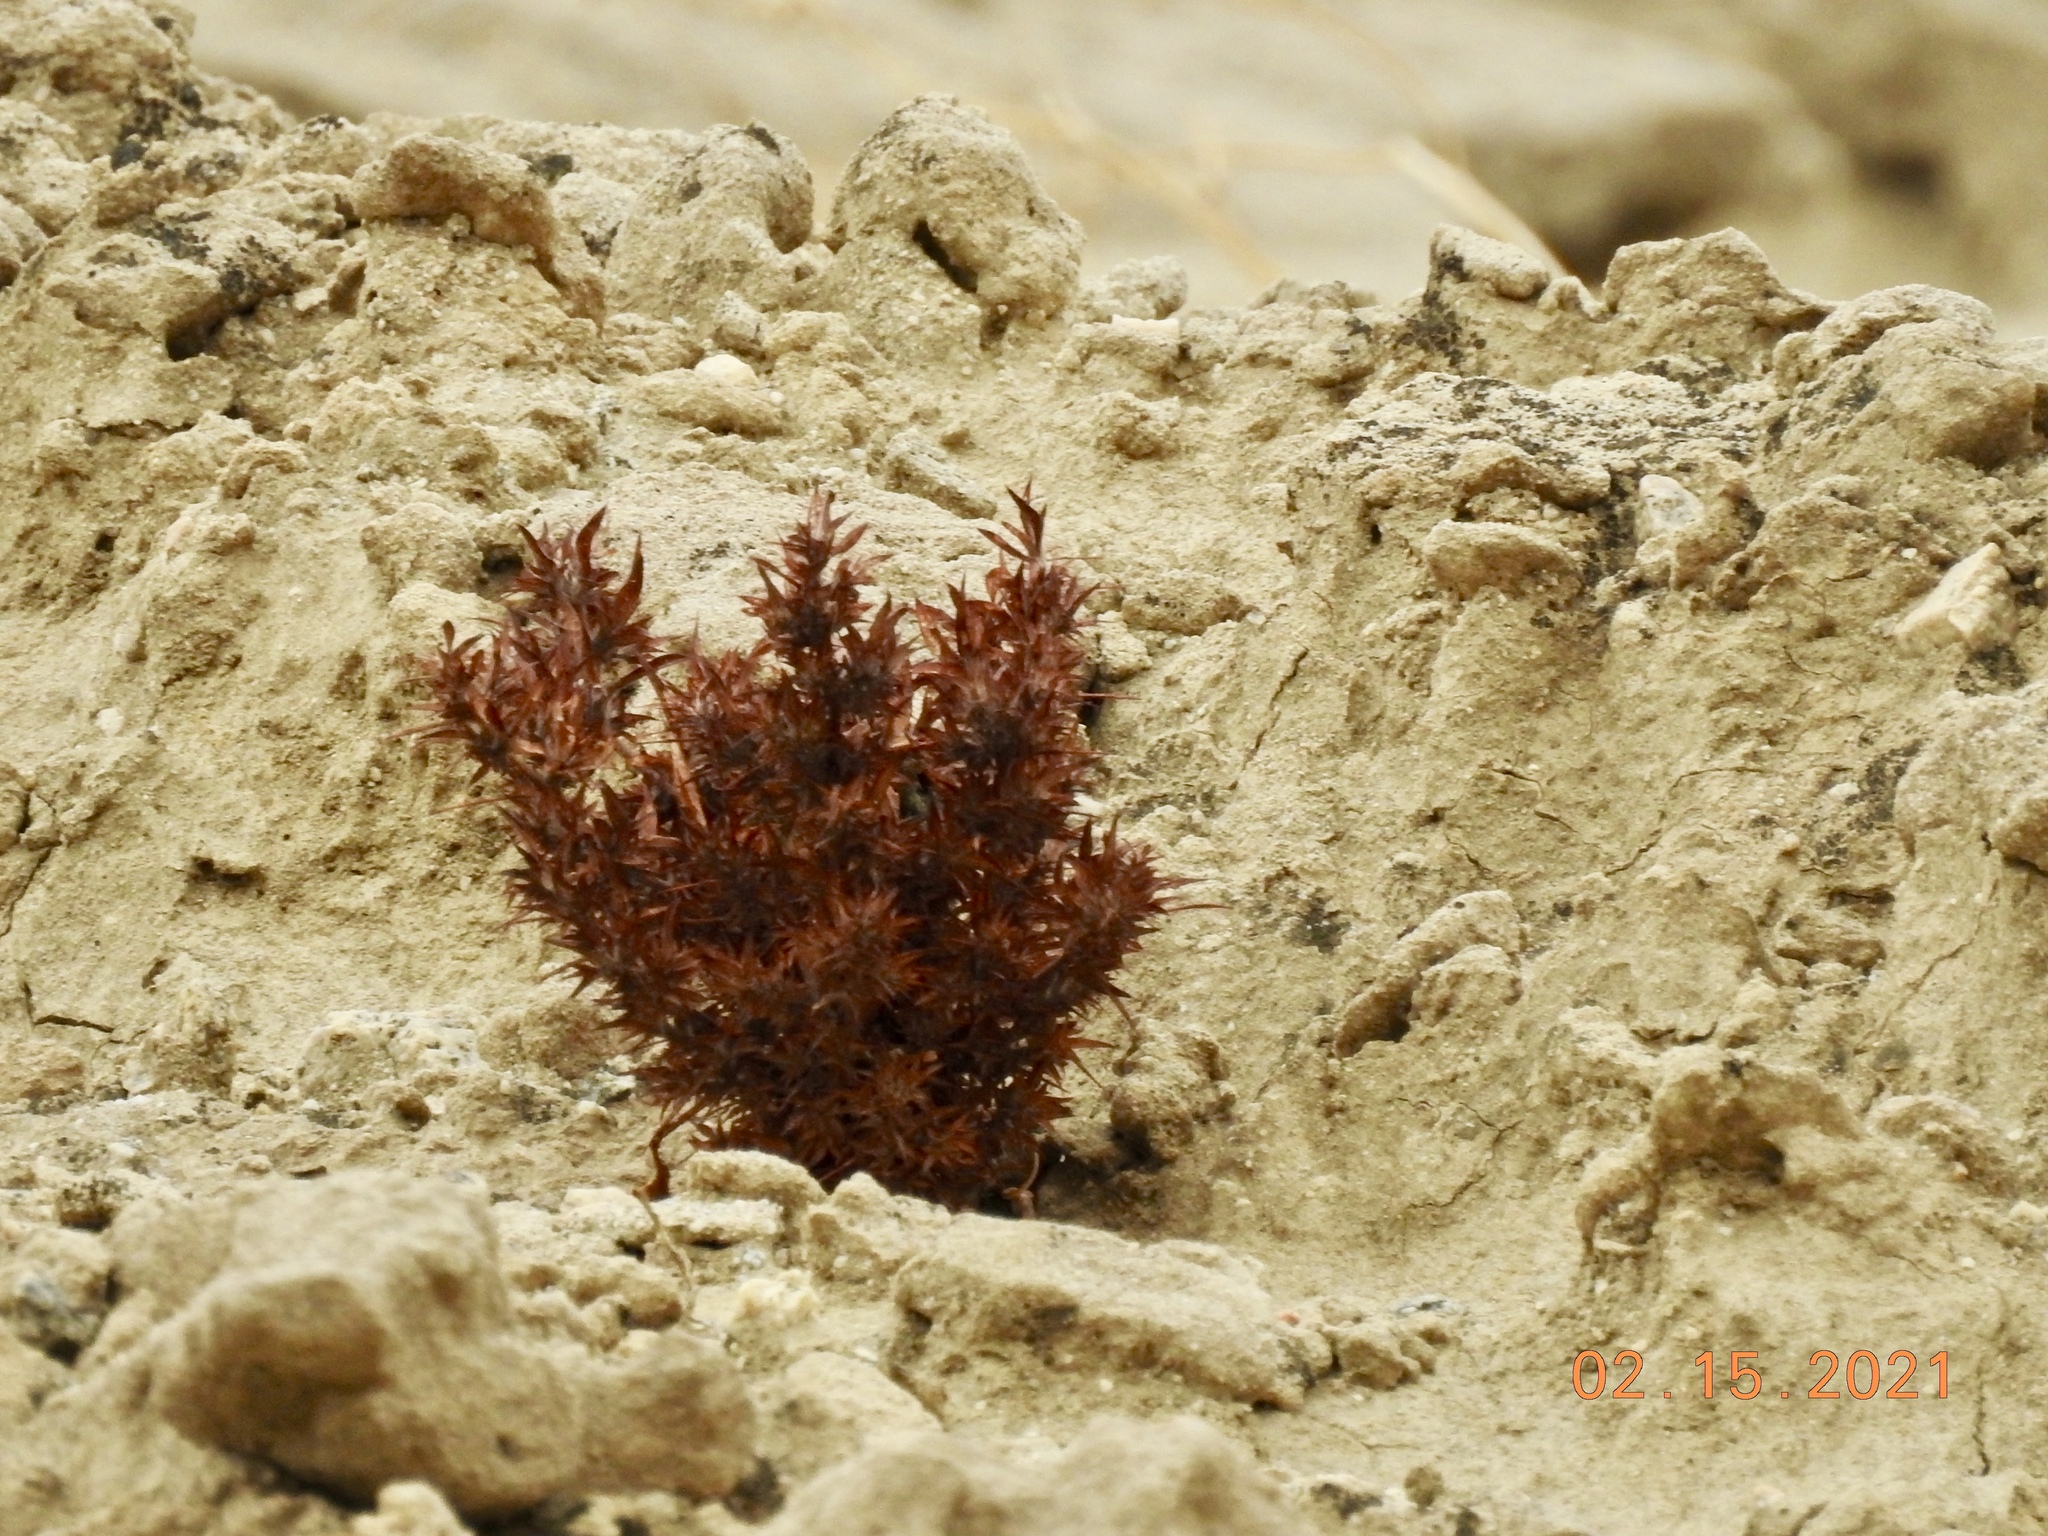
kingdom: Plantae
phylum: Tracheophyta
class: Magnoliopsida
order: Caryophyllales
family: Polygonaceae
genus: Chorizanthe
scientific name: Chorizanthe rigida
